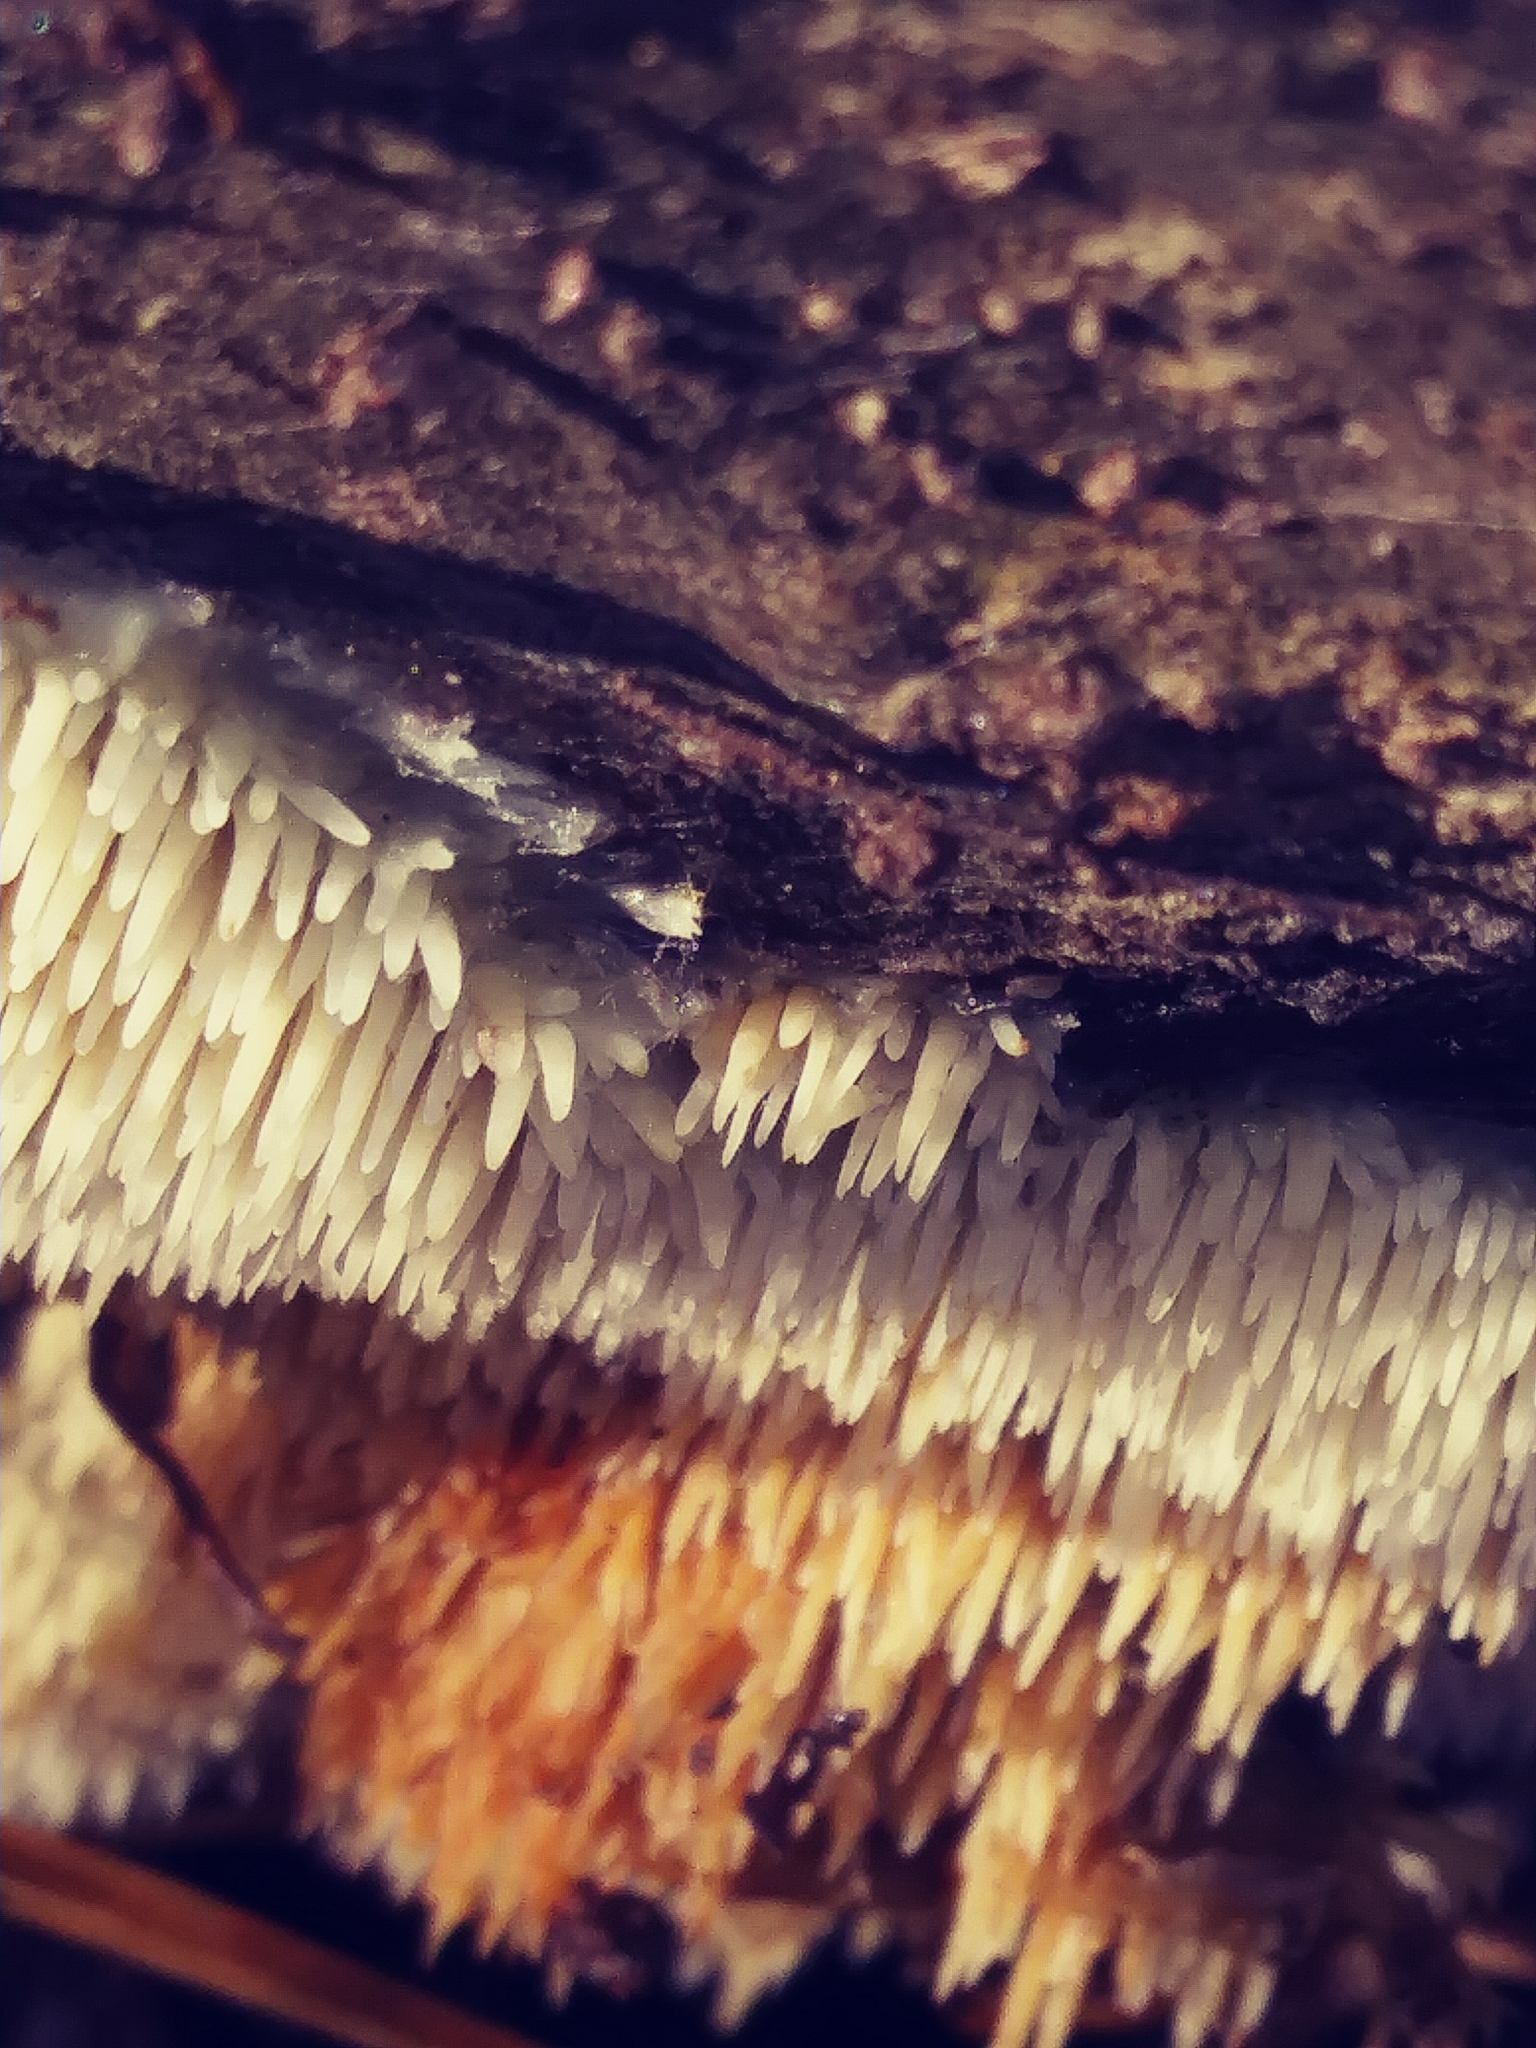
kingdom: Fungi
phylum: Basidiomycota
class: Agaricomycetes
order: Agaricales
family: Radulomycetaceae
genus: Radulomyces
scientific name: Radulomyces copelandii
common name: Asian beauty
